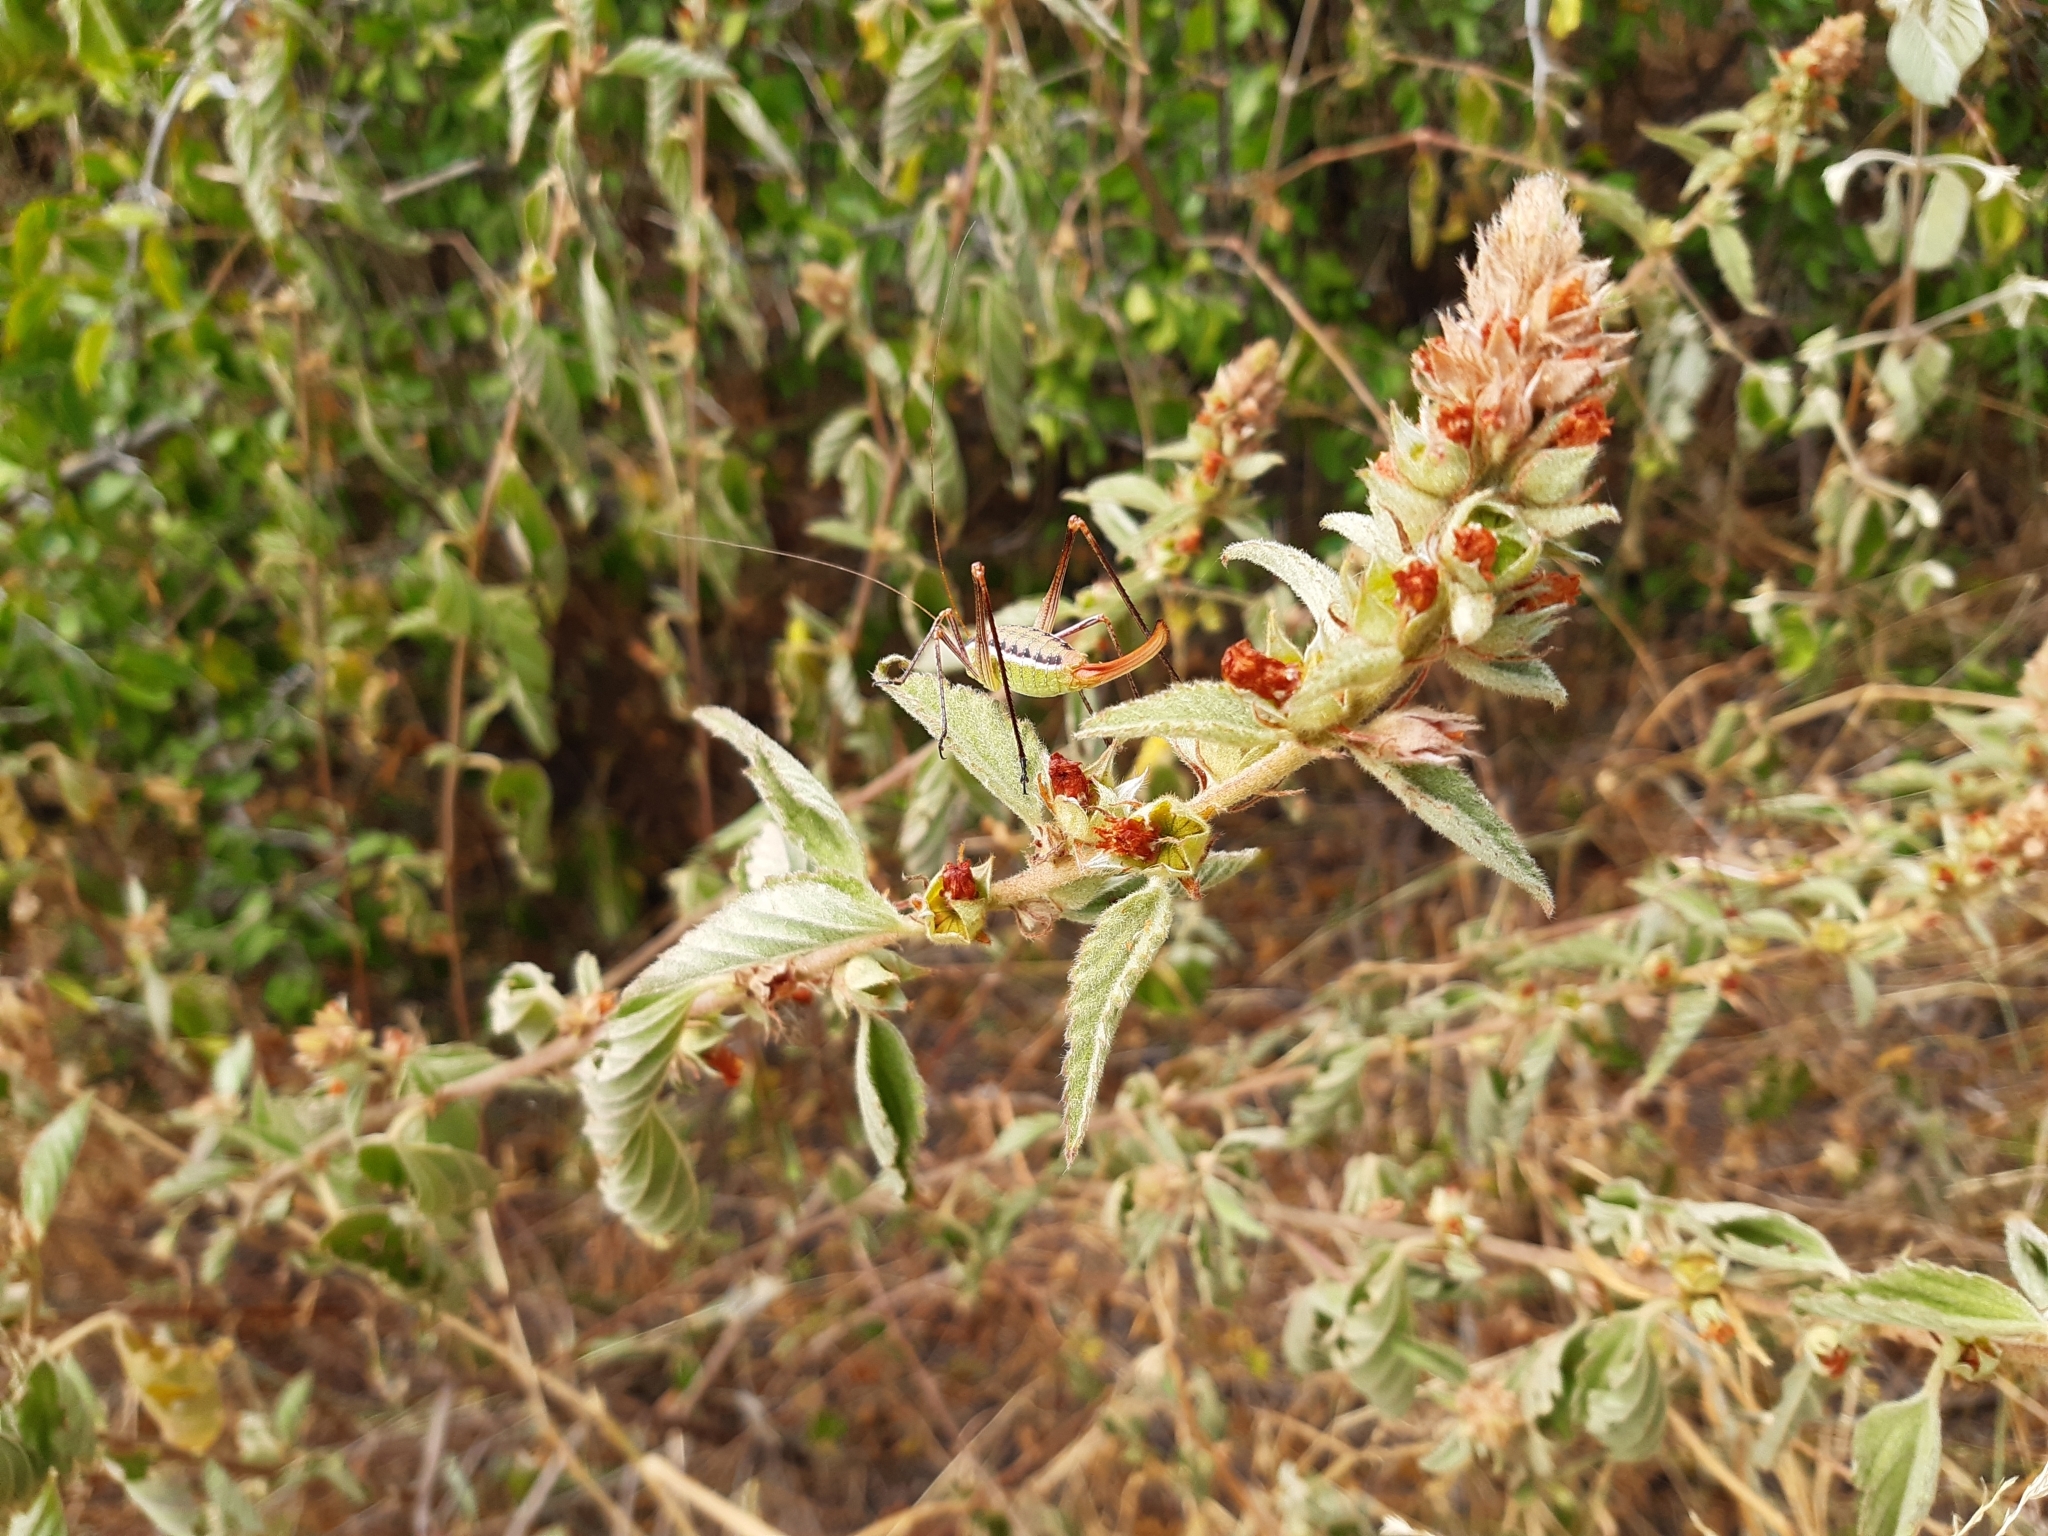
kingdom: Plantae
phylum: Tracheophyta
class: Magnoliopsida
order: Malvales
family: Malvaceae
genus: Malvastrum
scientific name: Malvastrum americanum
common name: Spiked malvastrum
